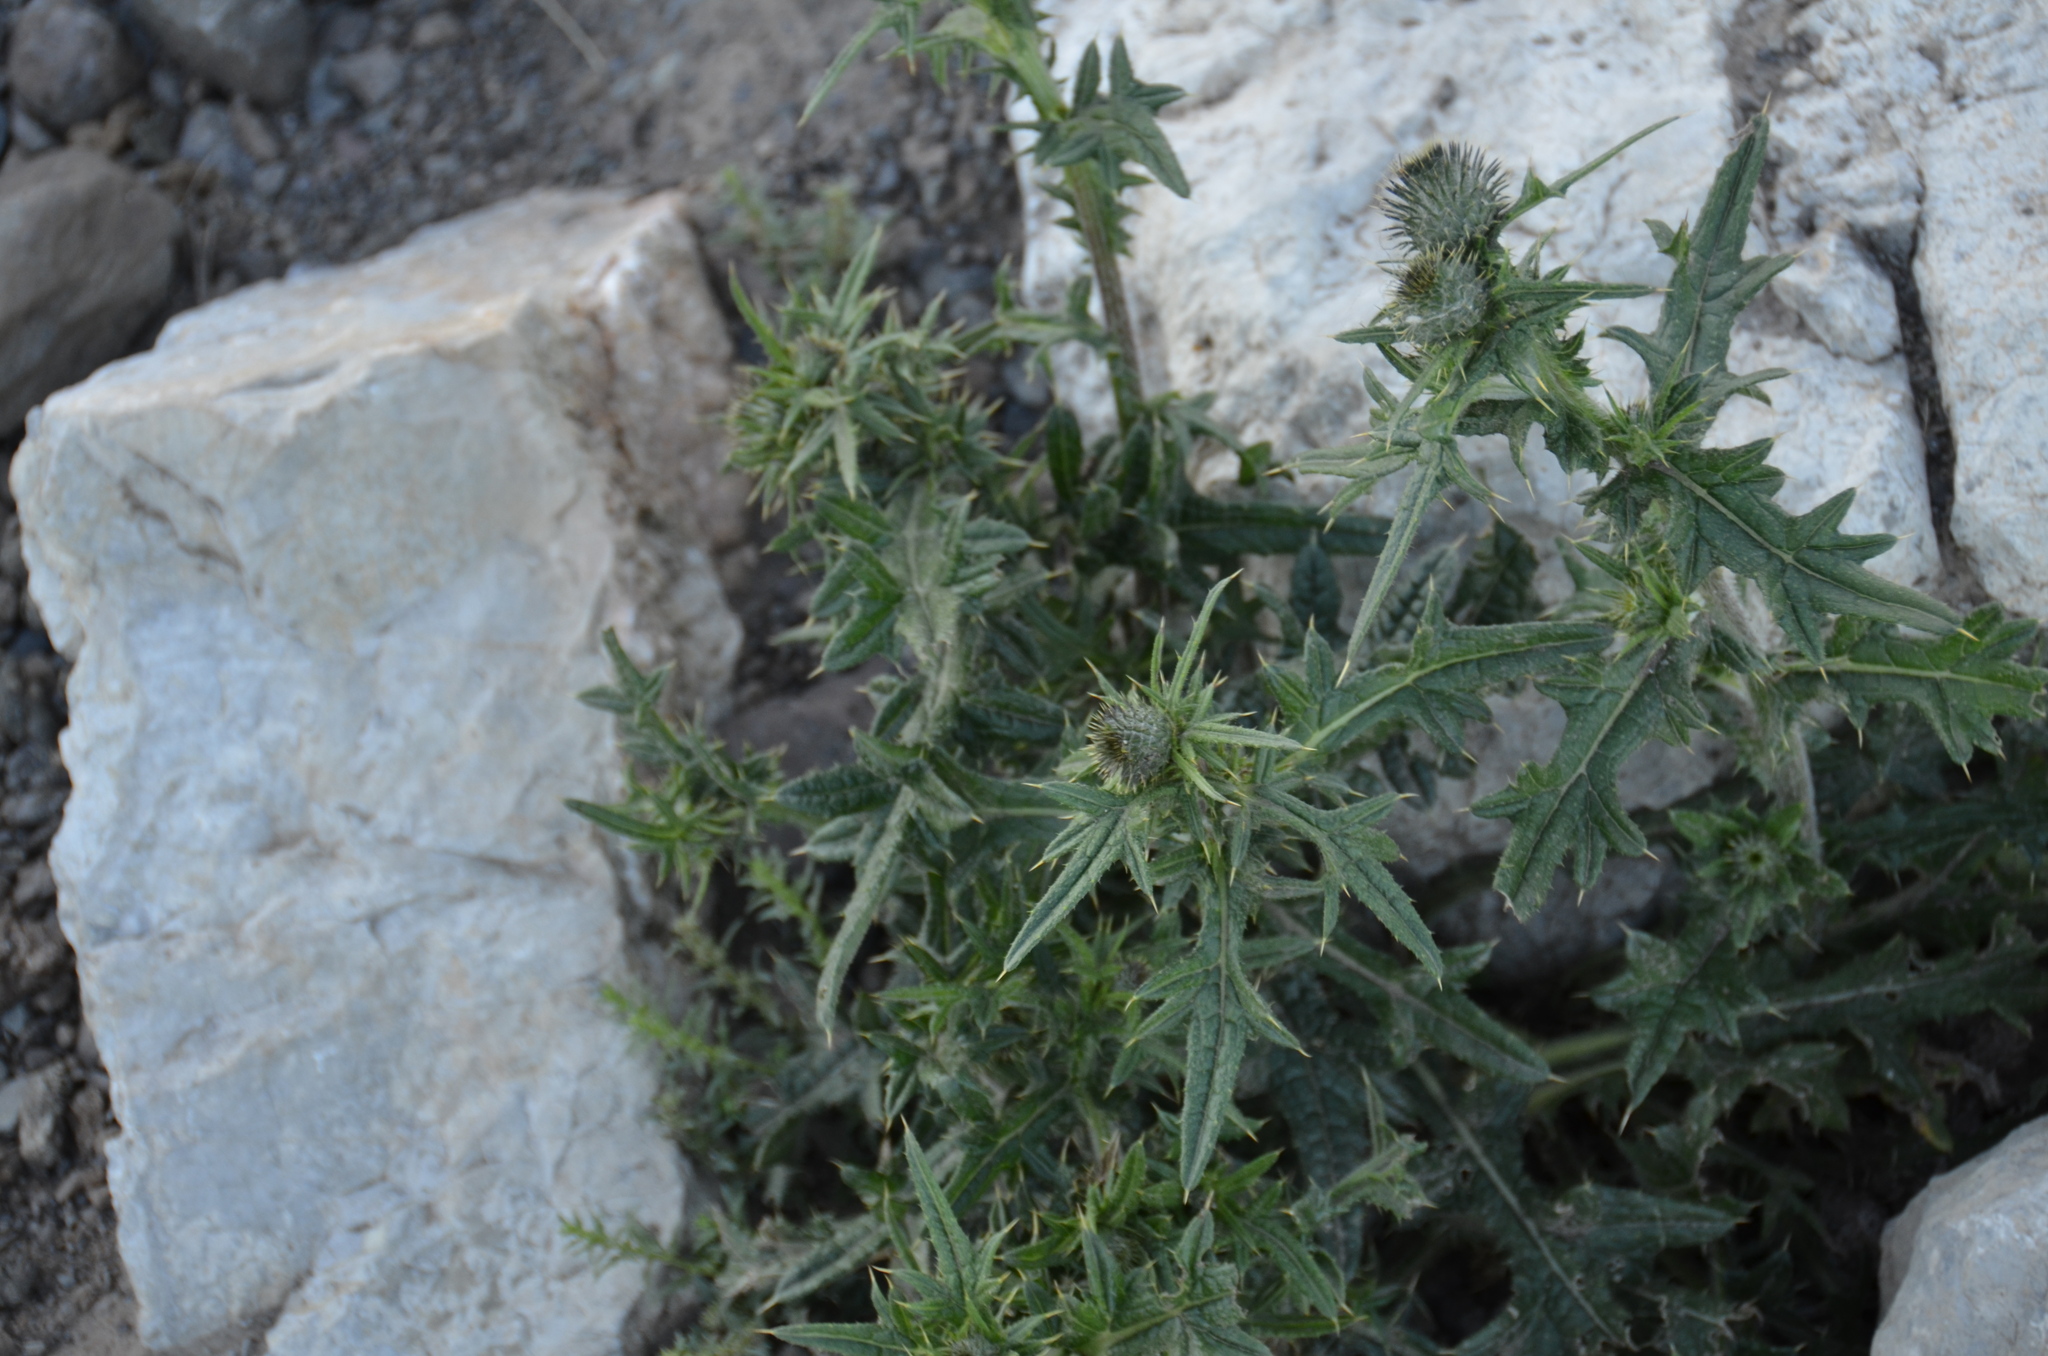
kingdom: Plantae
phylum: Tracheophyta
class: Magnoliopsida
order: Asterales
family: Asteraceae
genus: Cirsium
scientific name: Cirsium vulgare
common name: Bull thistle
